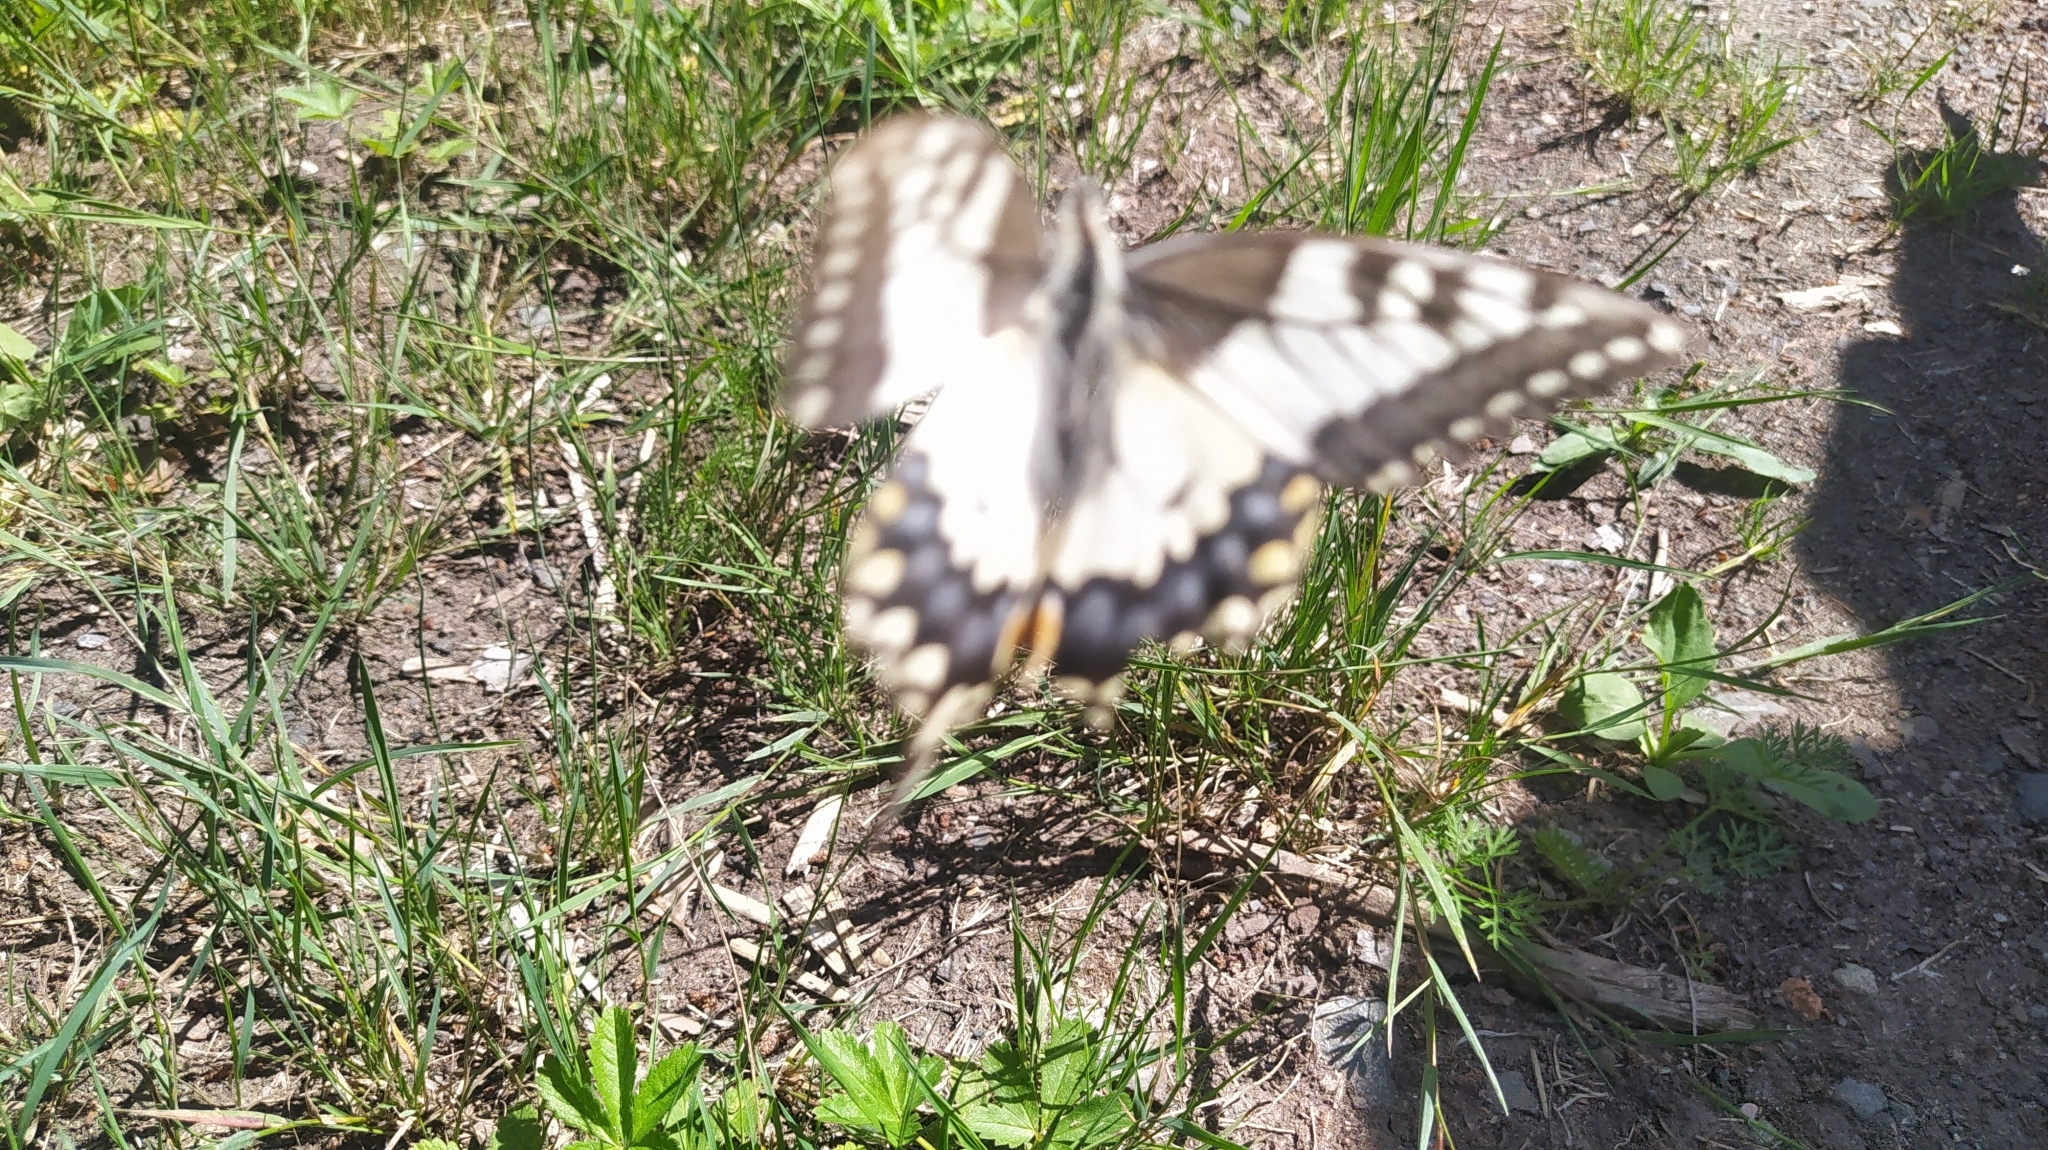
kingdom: Animalia
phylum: Arthropoda
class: Insecta
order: Lepidoptera
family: Papilionidae
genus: Papilio
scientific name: Papilio machaon
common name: Swallowtail
